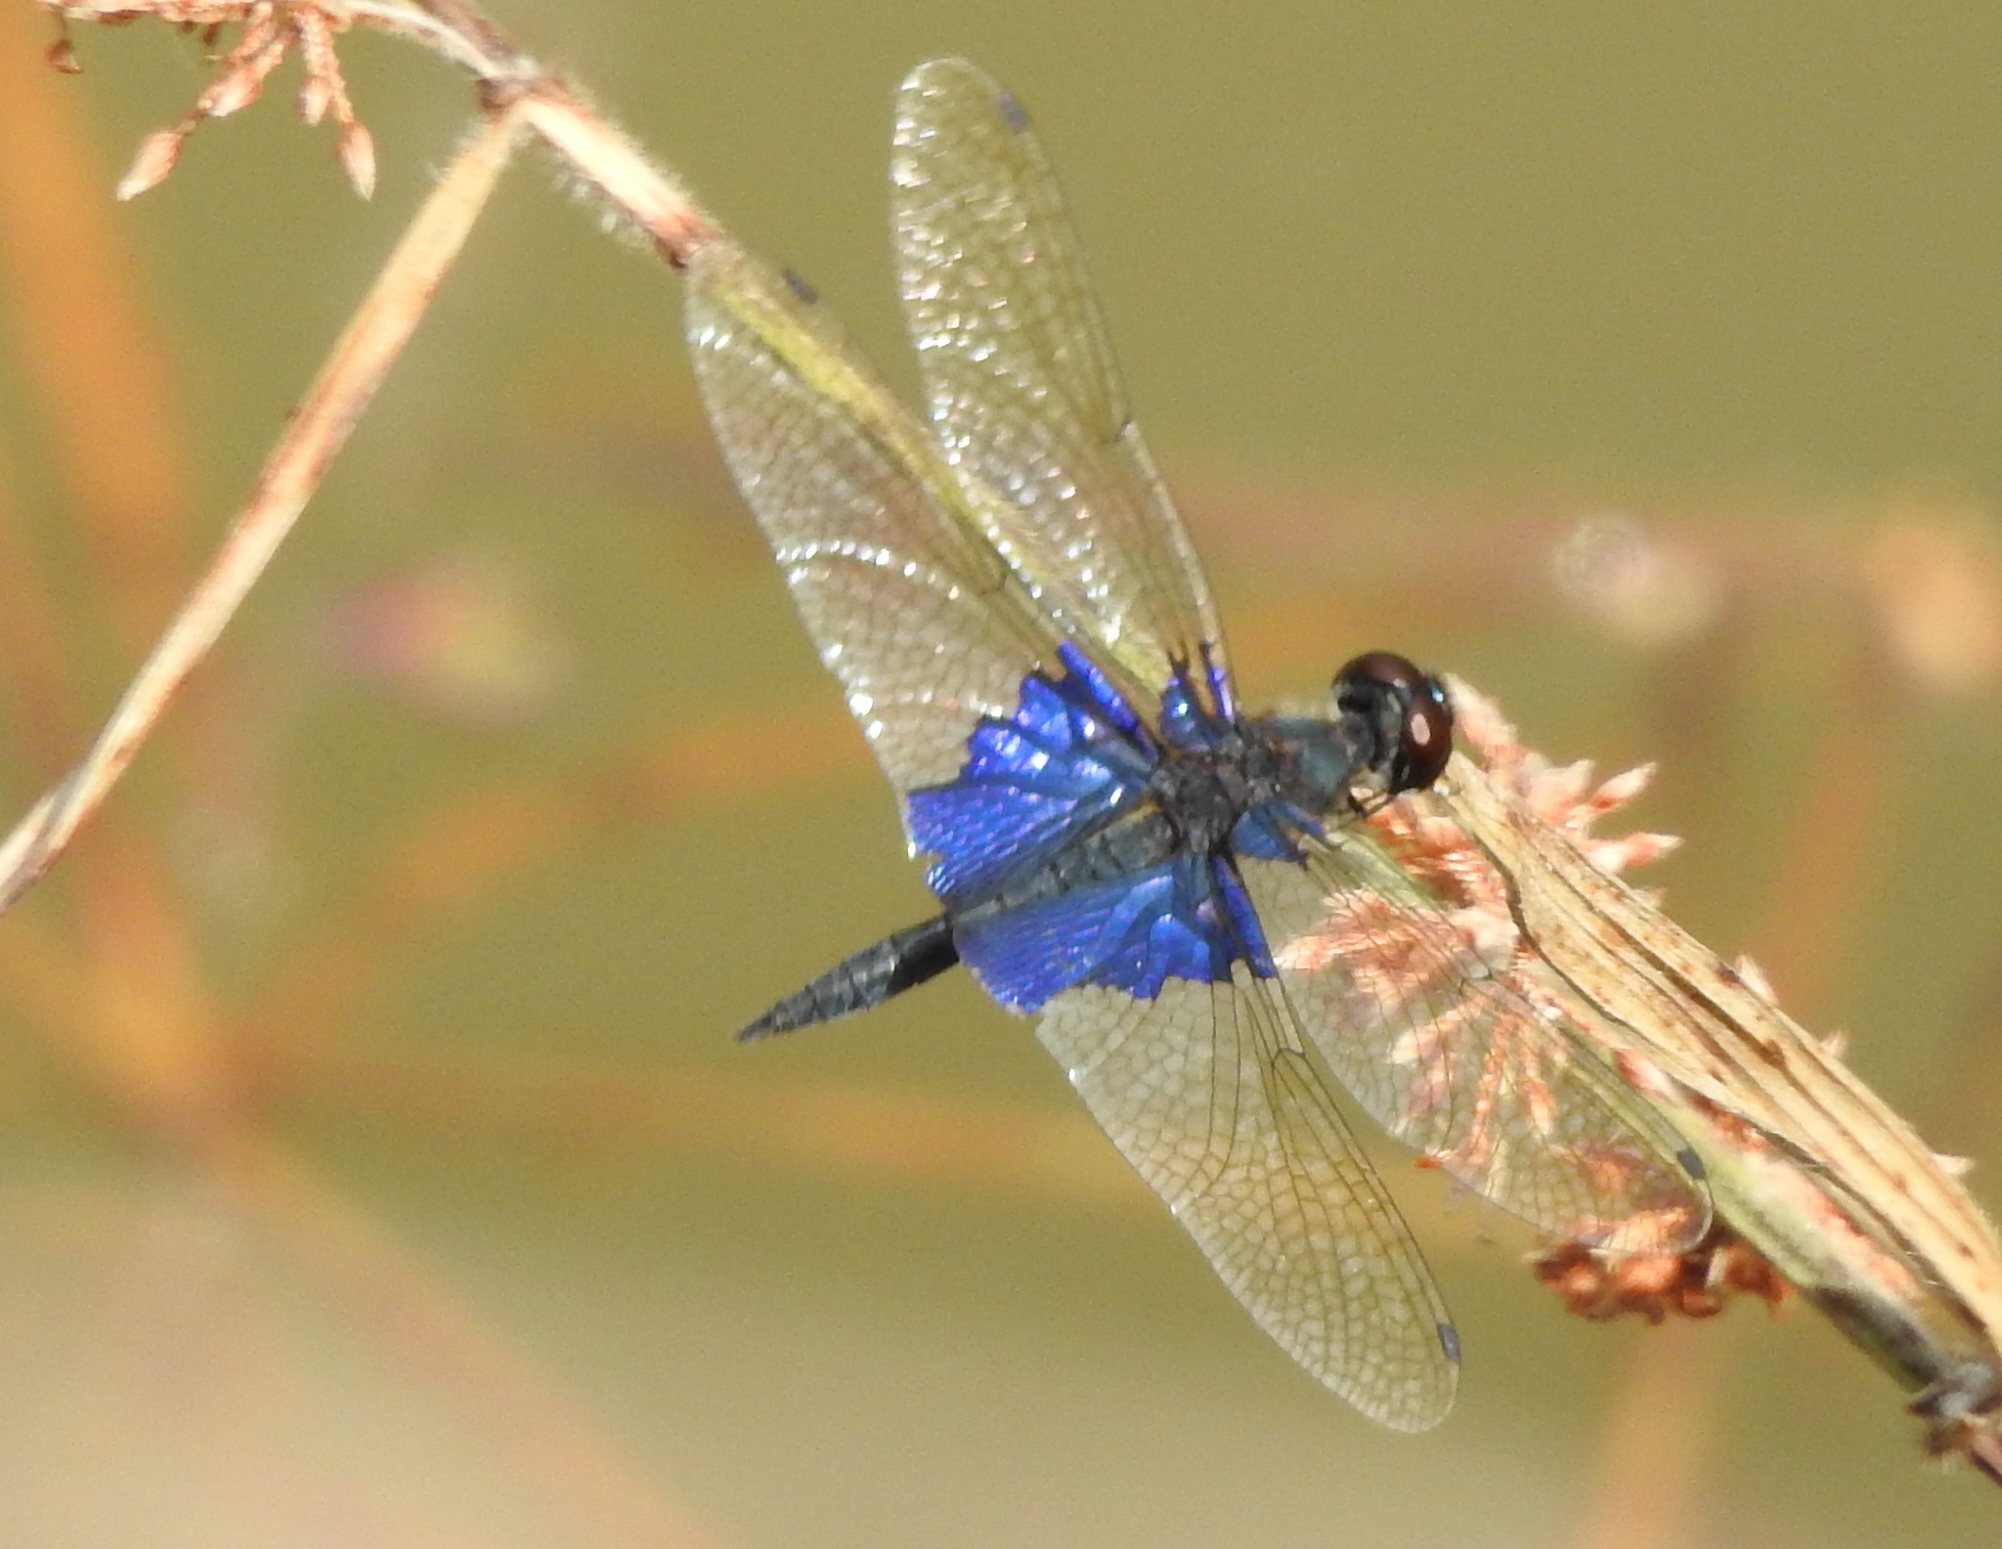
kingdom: Animalia
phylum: Arthropoda
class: Insecta
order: Odonata
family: Libellulidae
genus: Rhyothemis
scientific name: Rhyothemis triangularis
